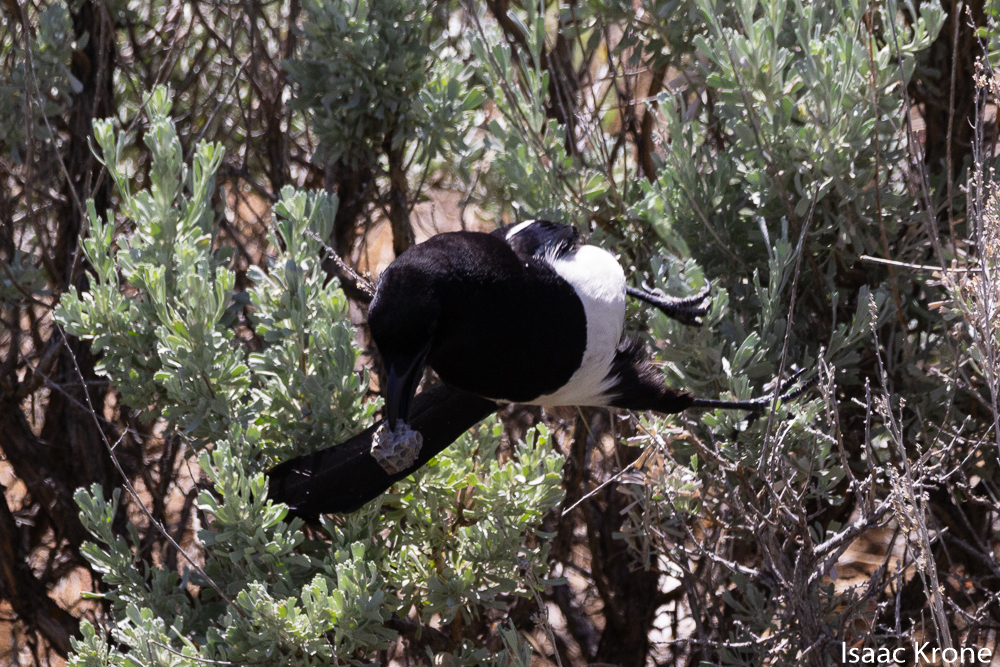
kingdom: Animalia
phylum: Chordata
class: Aves
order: Passeriformes
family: Corvidae
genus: Pica
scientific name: Pica hudsonia
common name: Black-billed magpie
